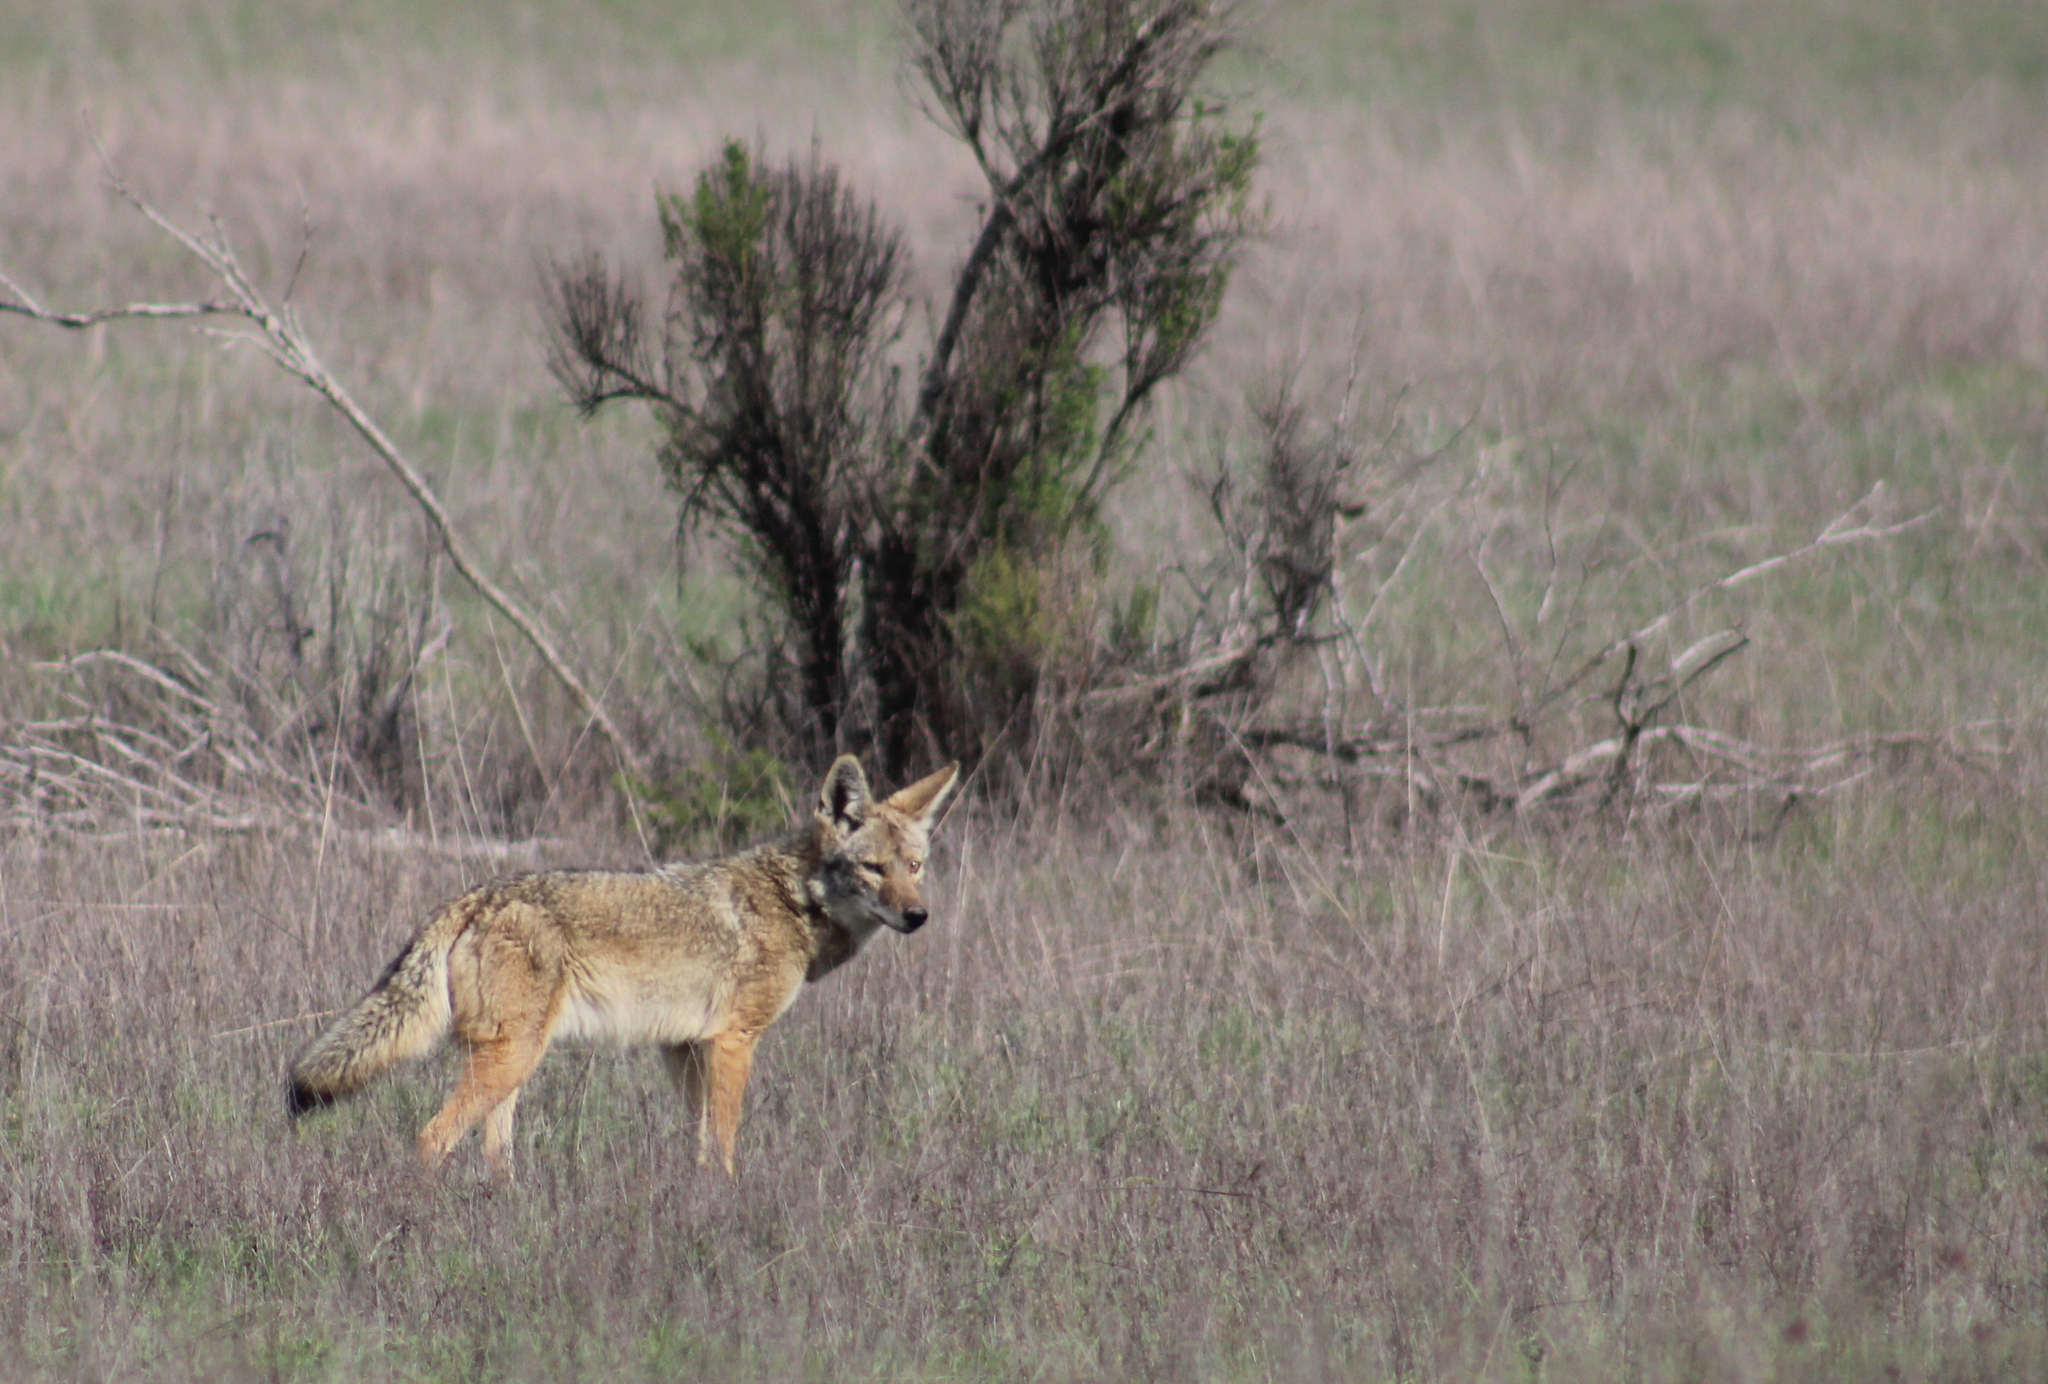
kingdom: Animalia
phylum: Chordata
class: Mammalia
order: Carnivora
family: Canidae
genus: Canis
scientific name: Canis latrans
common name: Coyote
